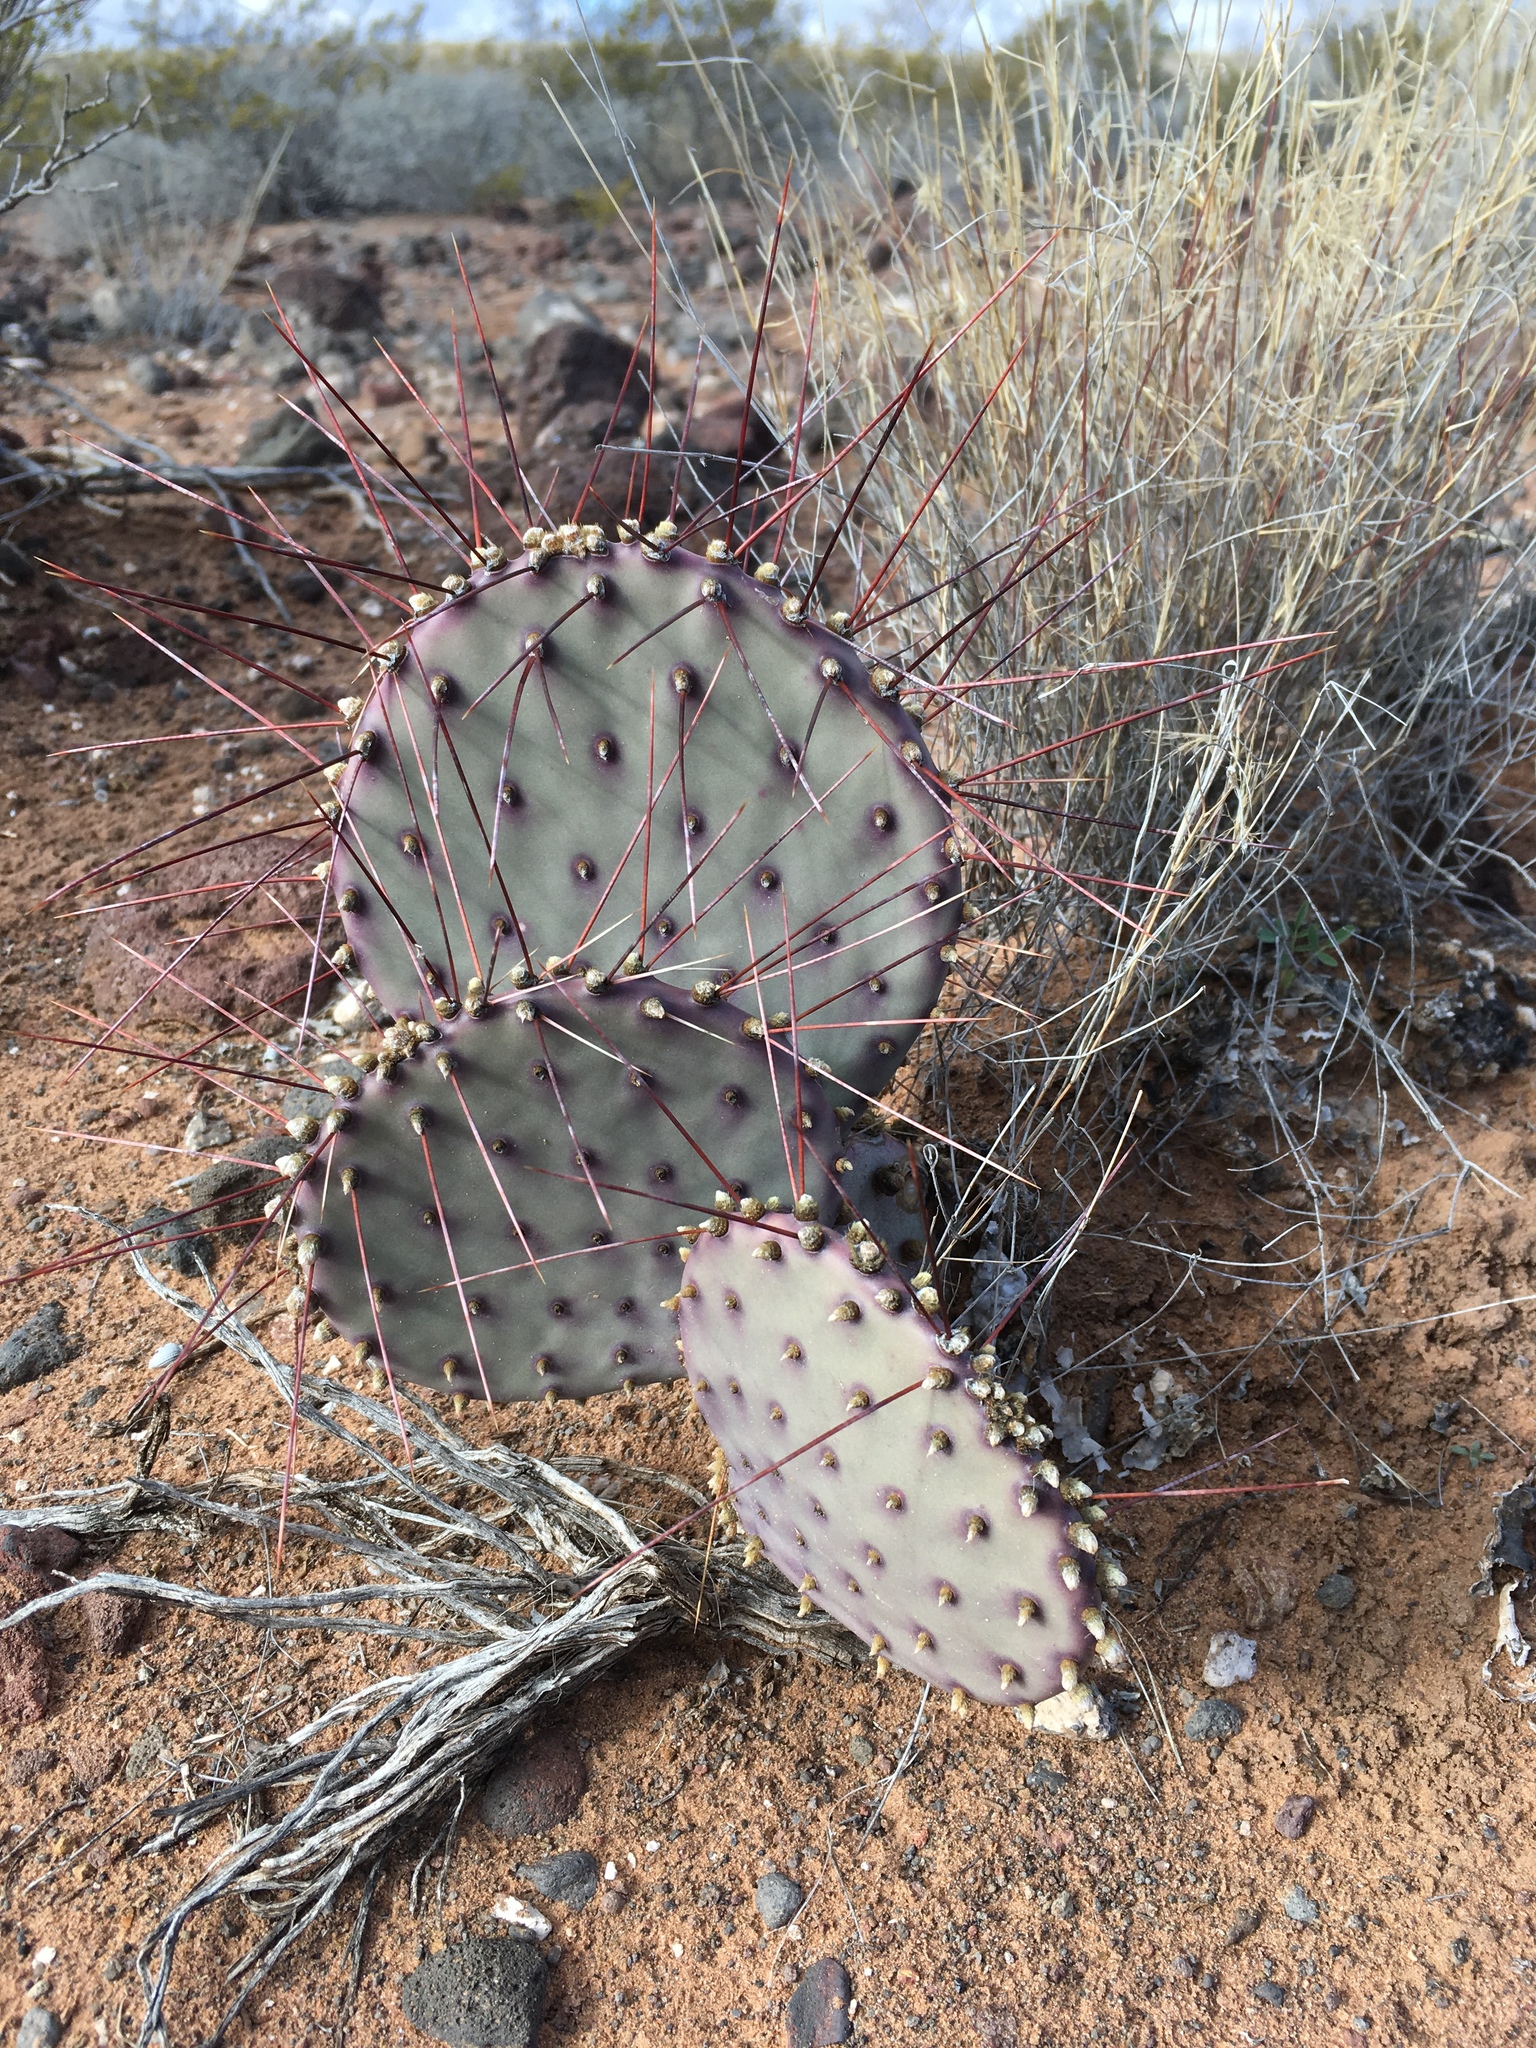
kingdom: Plantae
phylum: Tracheophyta
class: Magnoliopsida
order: Caryophyllales
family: Cactaceae
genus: Opuntia
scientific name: Opuntia macrocentra
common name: Purple prickly-pear
